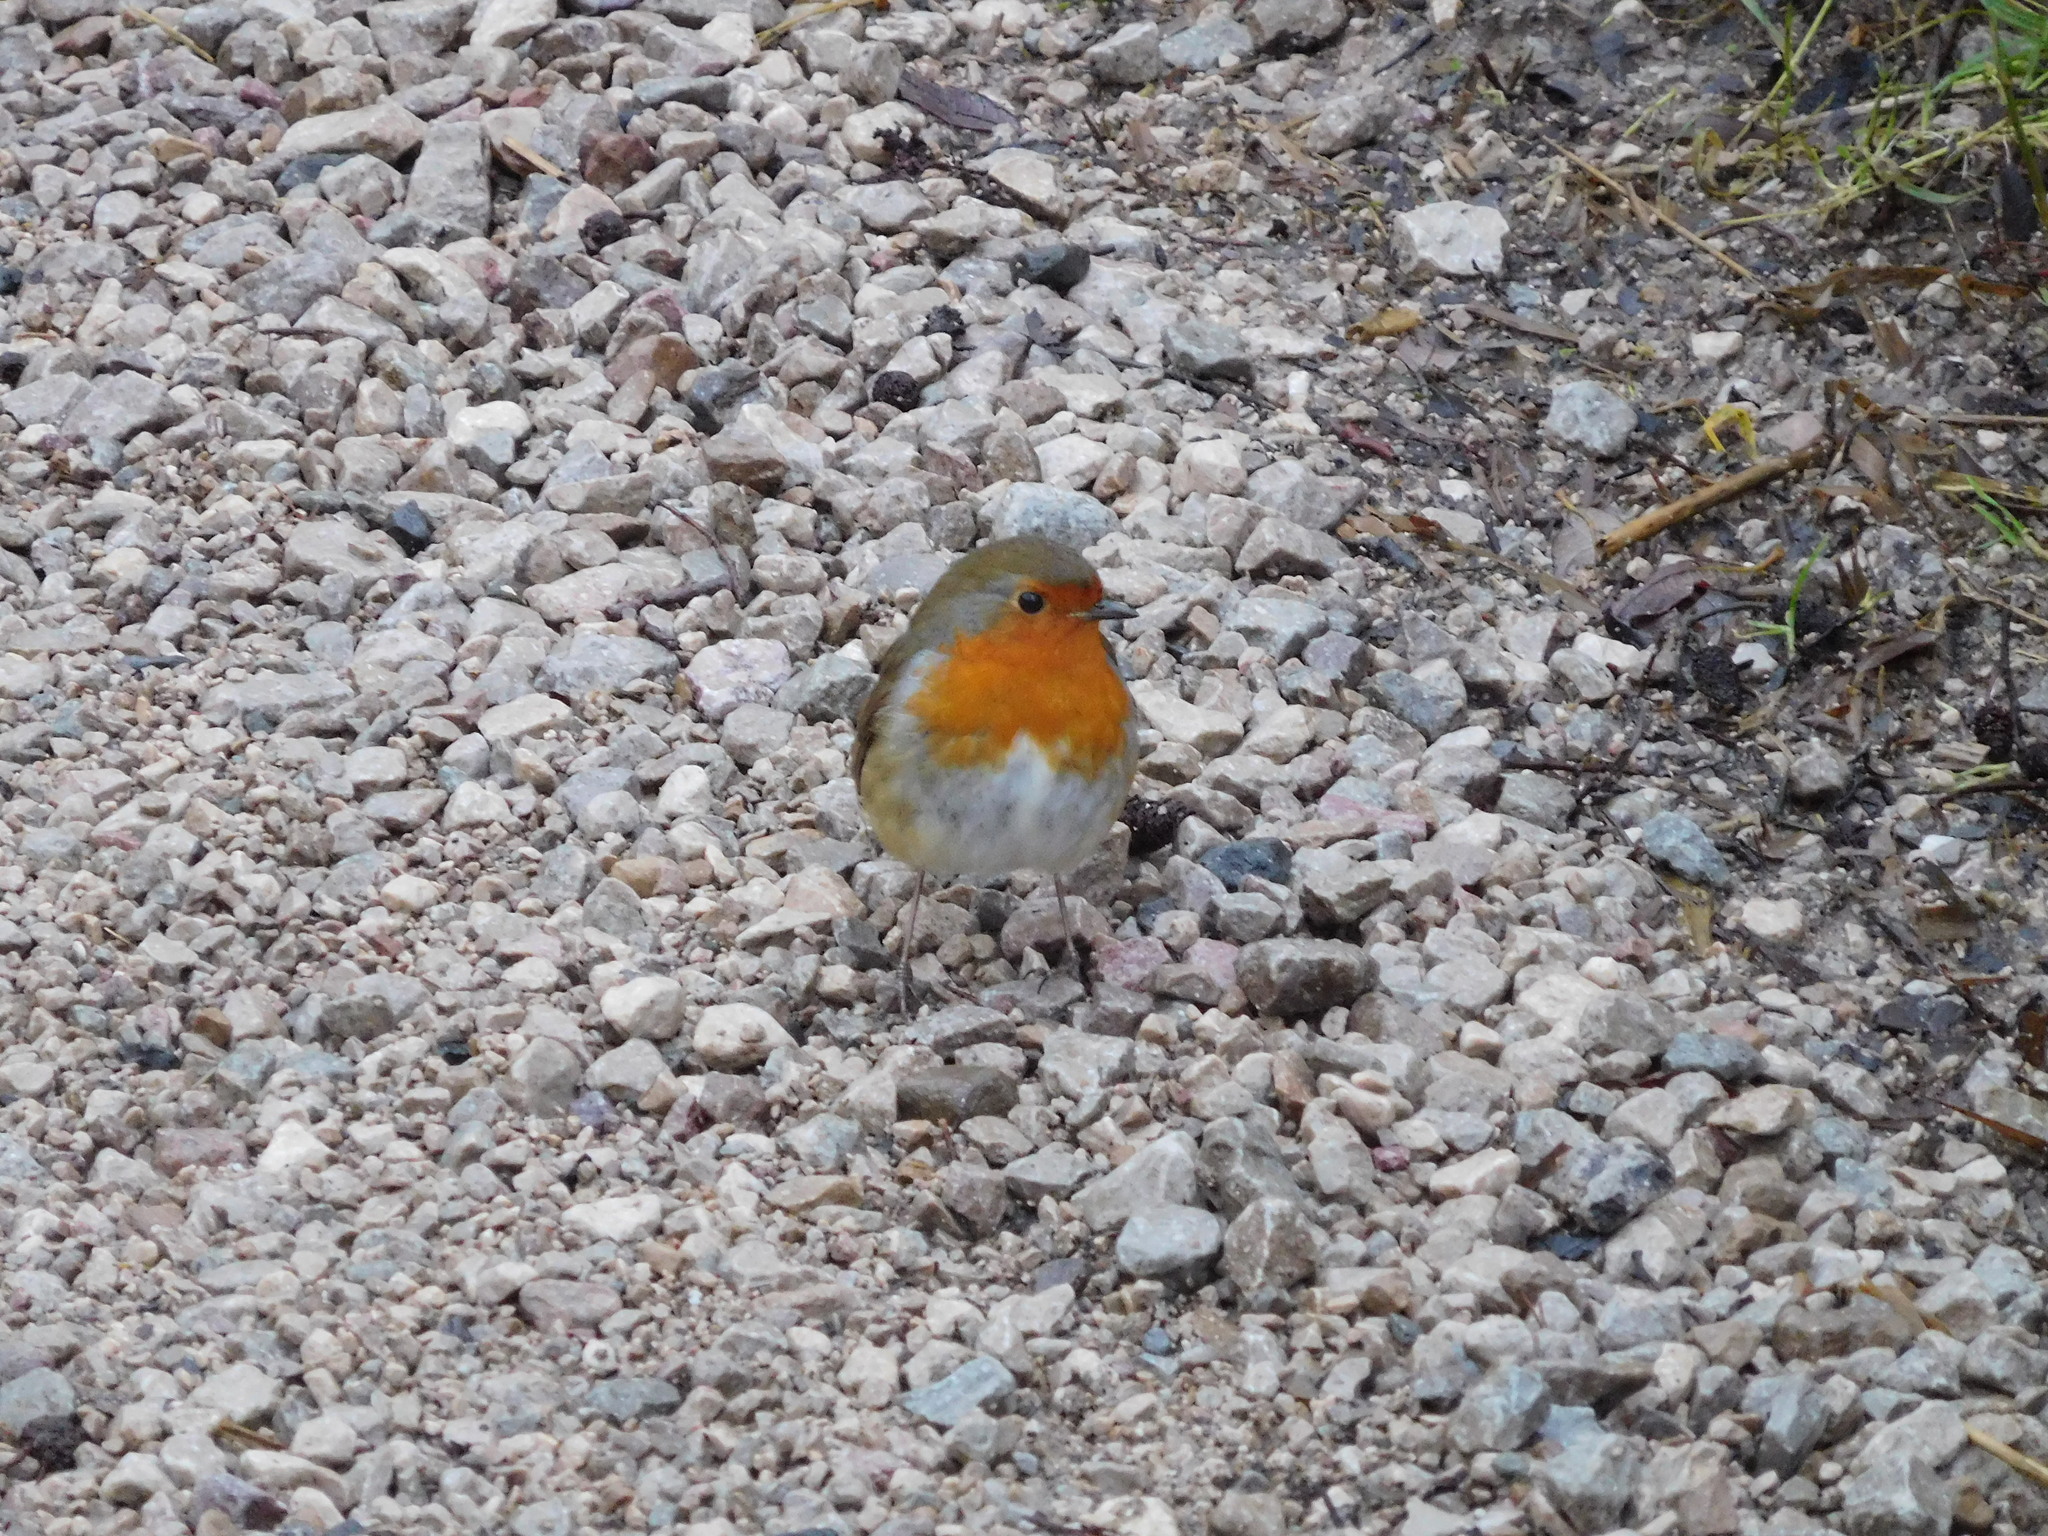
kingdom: Animalia
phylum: Chordata
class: Aves
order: Passeriformes
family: Muscicapidae
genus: Erithacus
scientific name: Erithacus rubecula
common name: European robin
